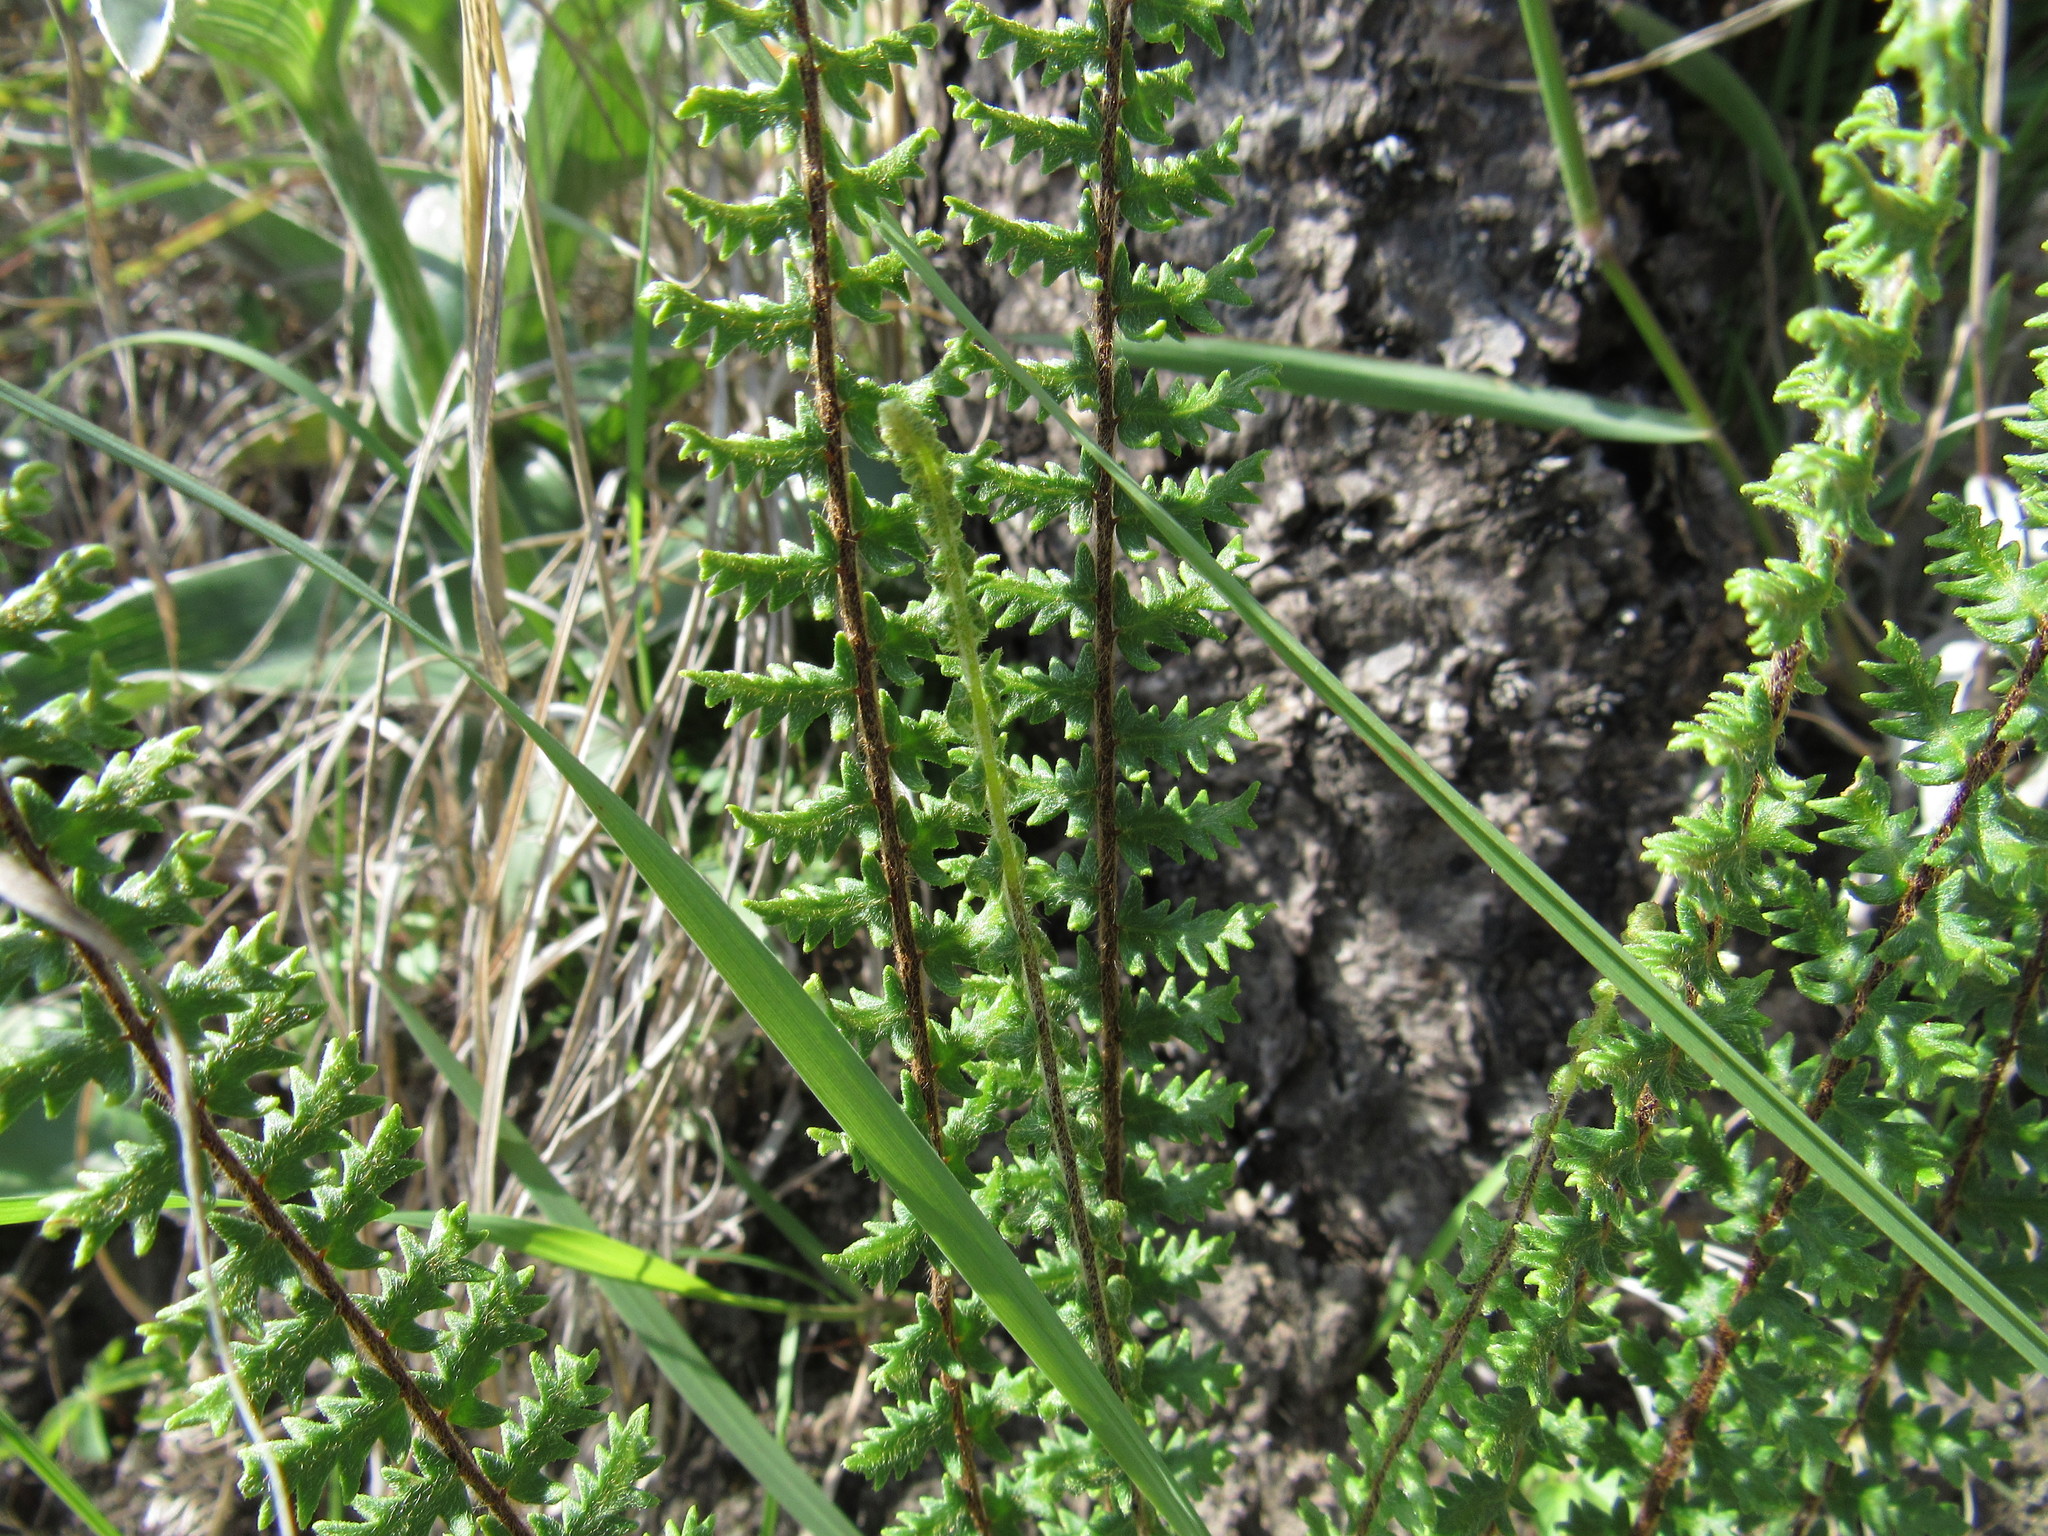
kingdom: Plantae
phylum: Tracheophyta
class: Polypodiopsida
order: Polypodiales
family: Pteridaceae
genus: Astrolepis
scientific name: Astrolepis sinuata
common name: Wavy scaly cloakfern
